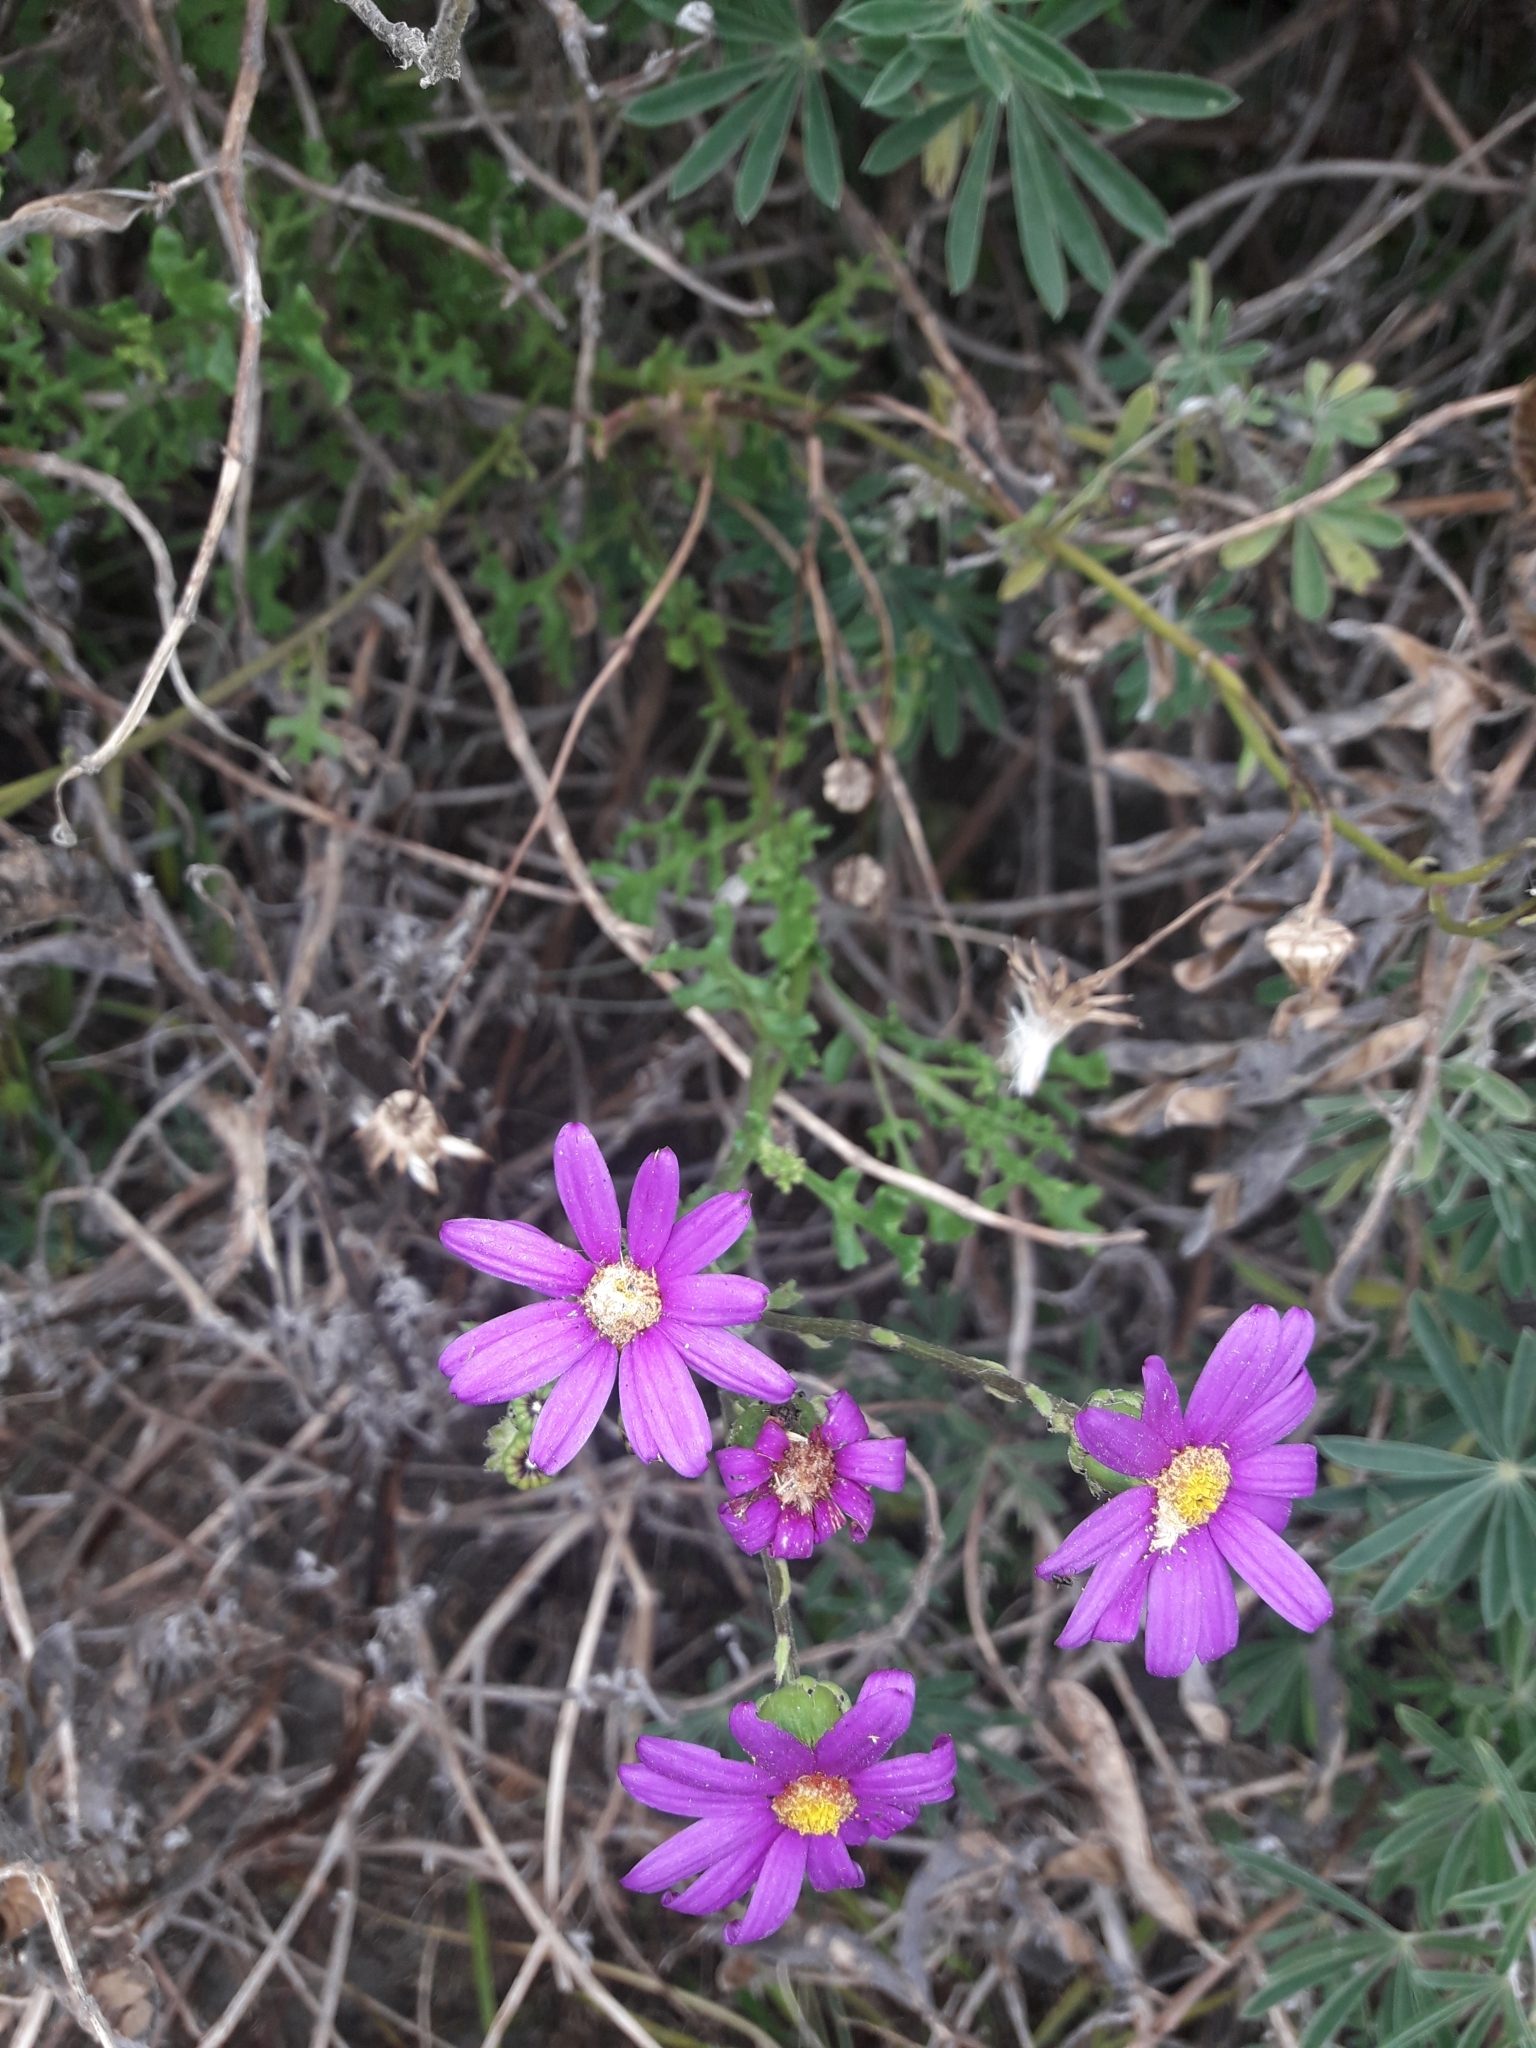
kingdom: Plantae
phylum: Tracheophyta
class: Magnoliopsida
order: Asterales
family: Asteraceae
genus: Senecio
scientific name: Senecio elegans
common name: Purple groundsel
